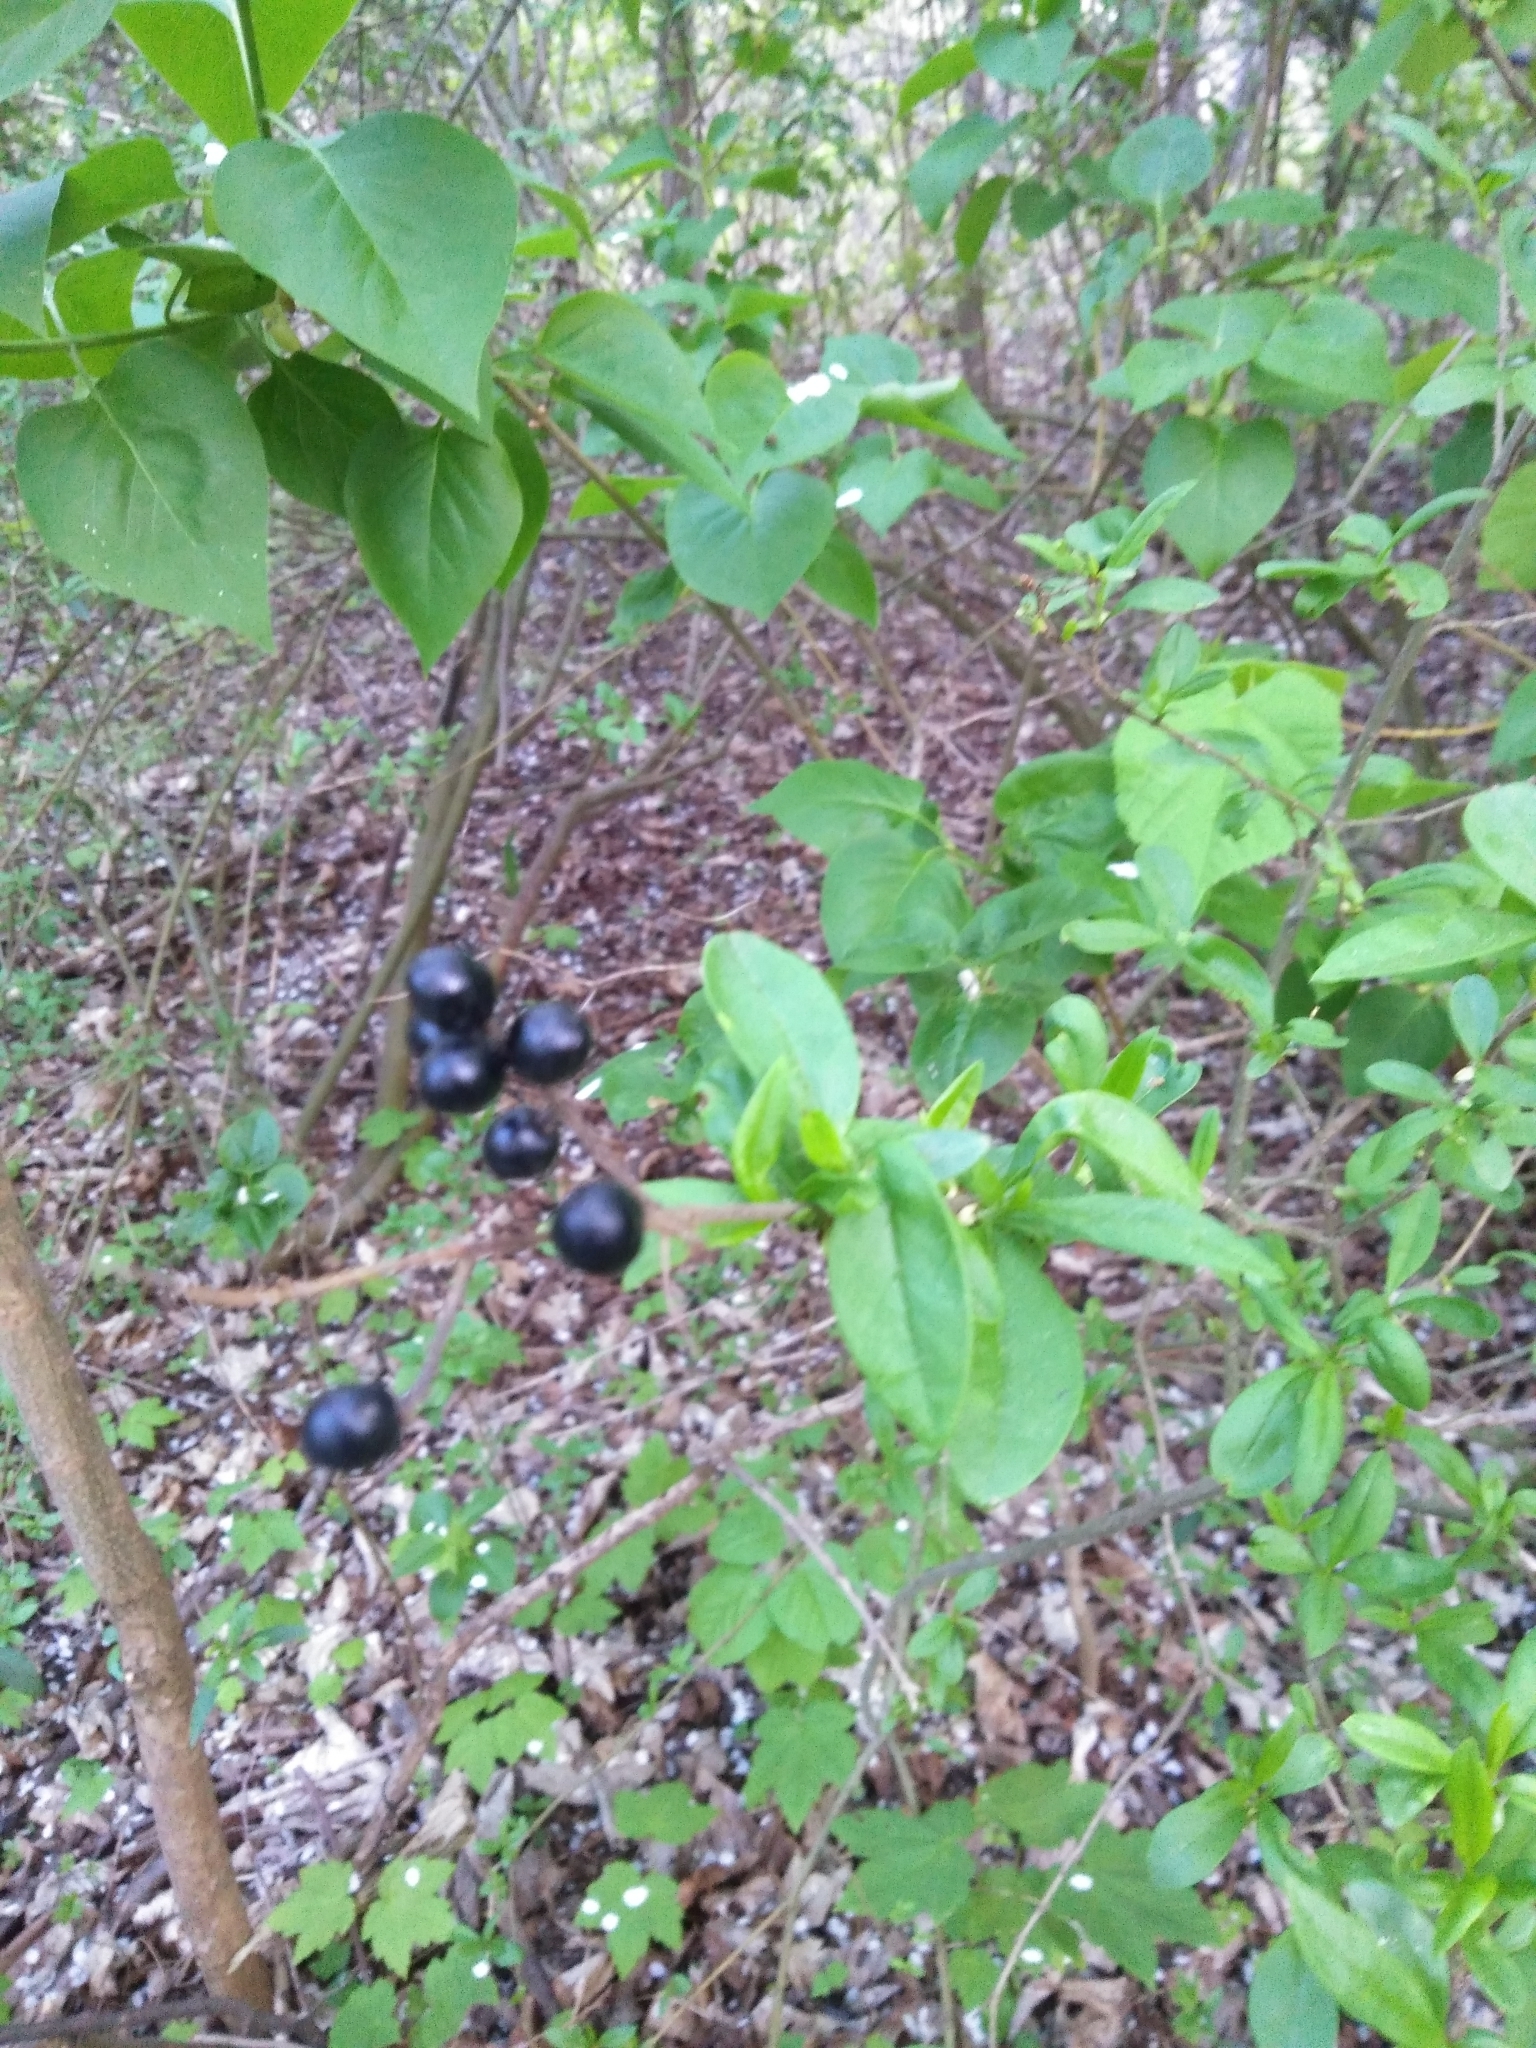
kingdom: Plantae
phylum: Tracheophyta
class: Magnoliopsida
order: Lamiales
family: Oleaceae
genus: Ligustrum
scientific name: Ligustrum vulgare
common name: Wild privet
